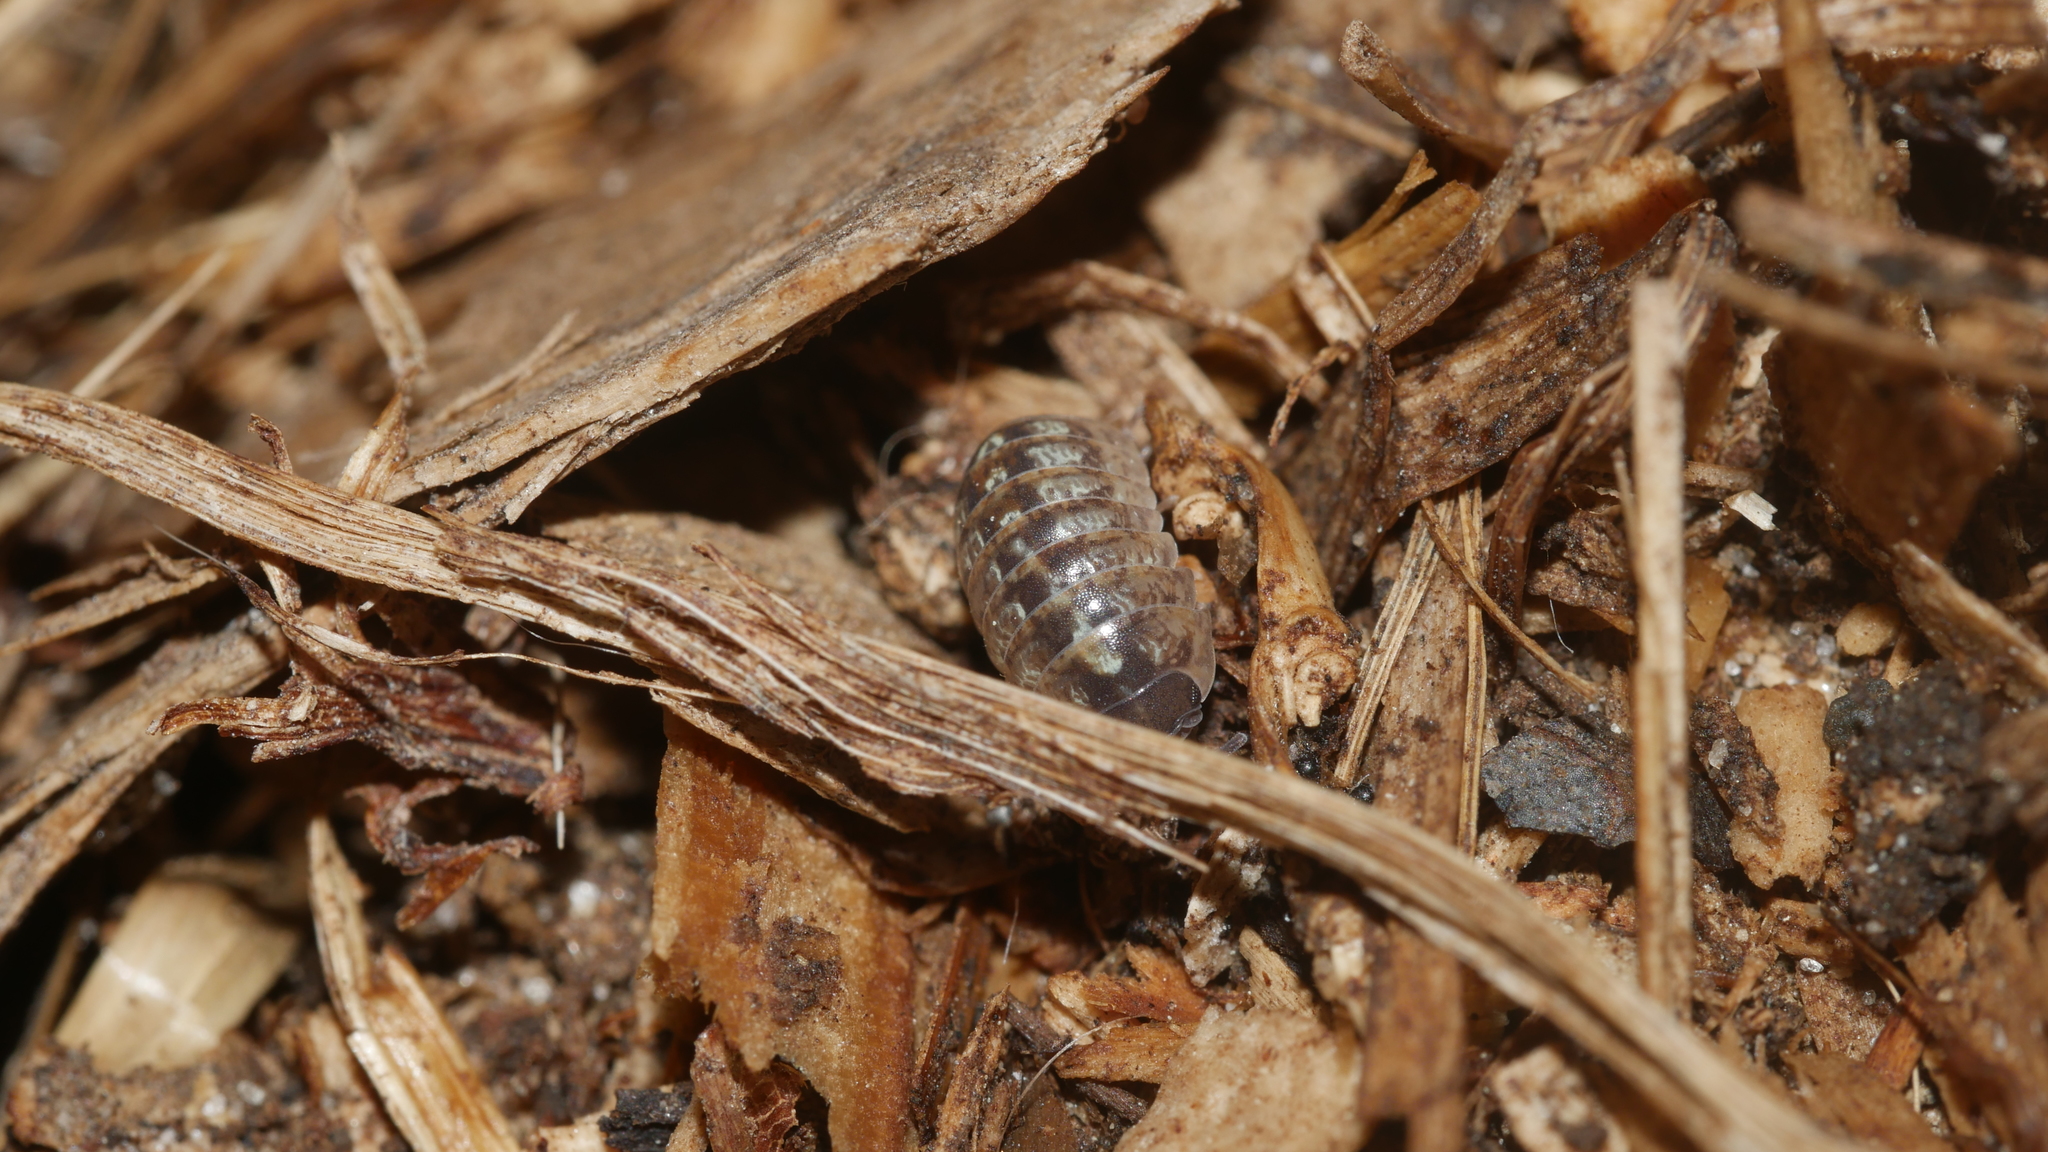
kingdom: Animalia
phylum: Arthropoda
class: Malacostraca
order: Isopoda
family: Armadillidiidae
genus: Armadillidium
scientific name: Armadillidium vulgare
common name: Common pill woodlouse
